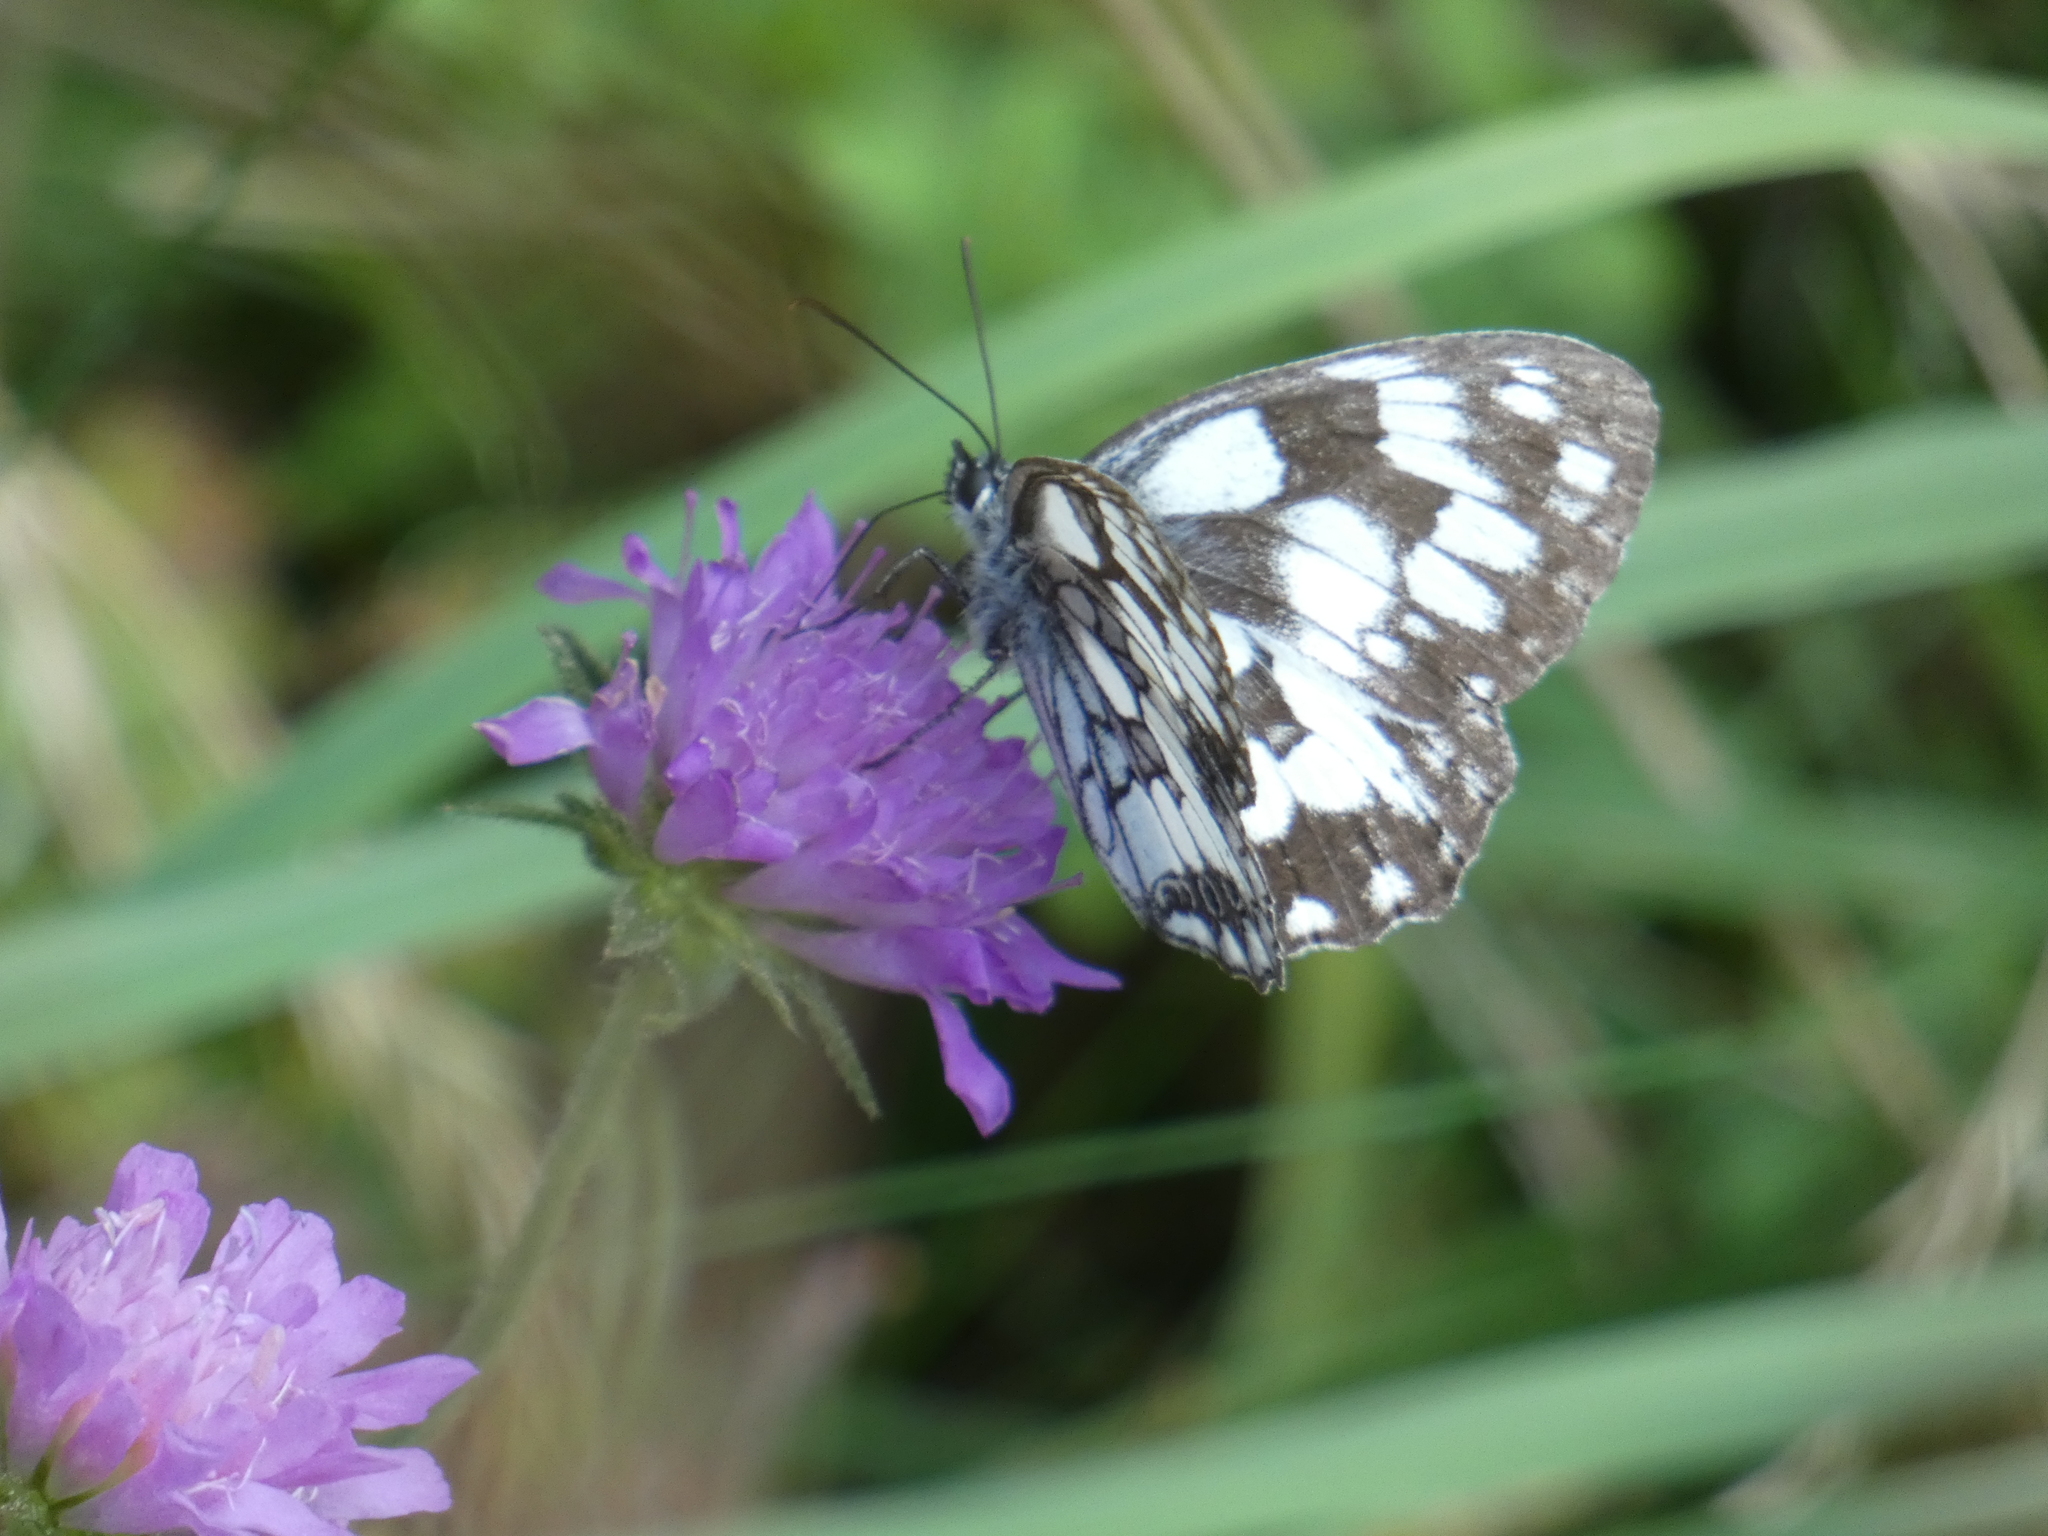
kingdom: Animalia
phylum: Arthropoda
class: Insecta
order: Lepidoptera
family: Nymphalidae
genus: Melanargia
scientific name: Melanargia galathea
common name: Marbled white
